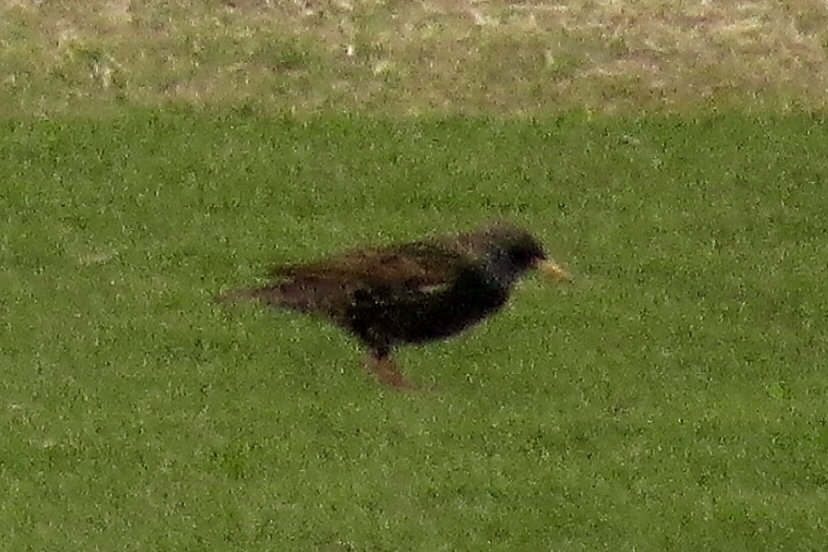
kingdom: Animalia
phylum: Chordata
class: Aves
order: Passeriformes
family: Sturnidae
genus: Sturnus
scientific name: Sturnus vulgaris
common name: Common starling
